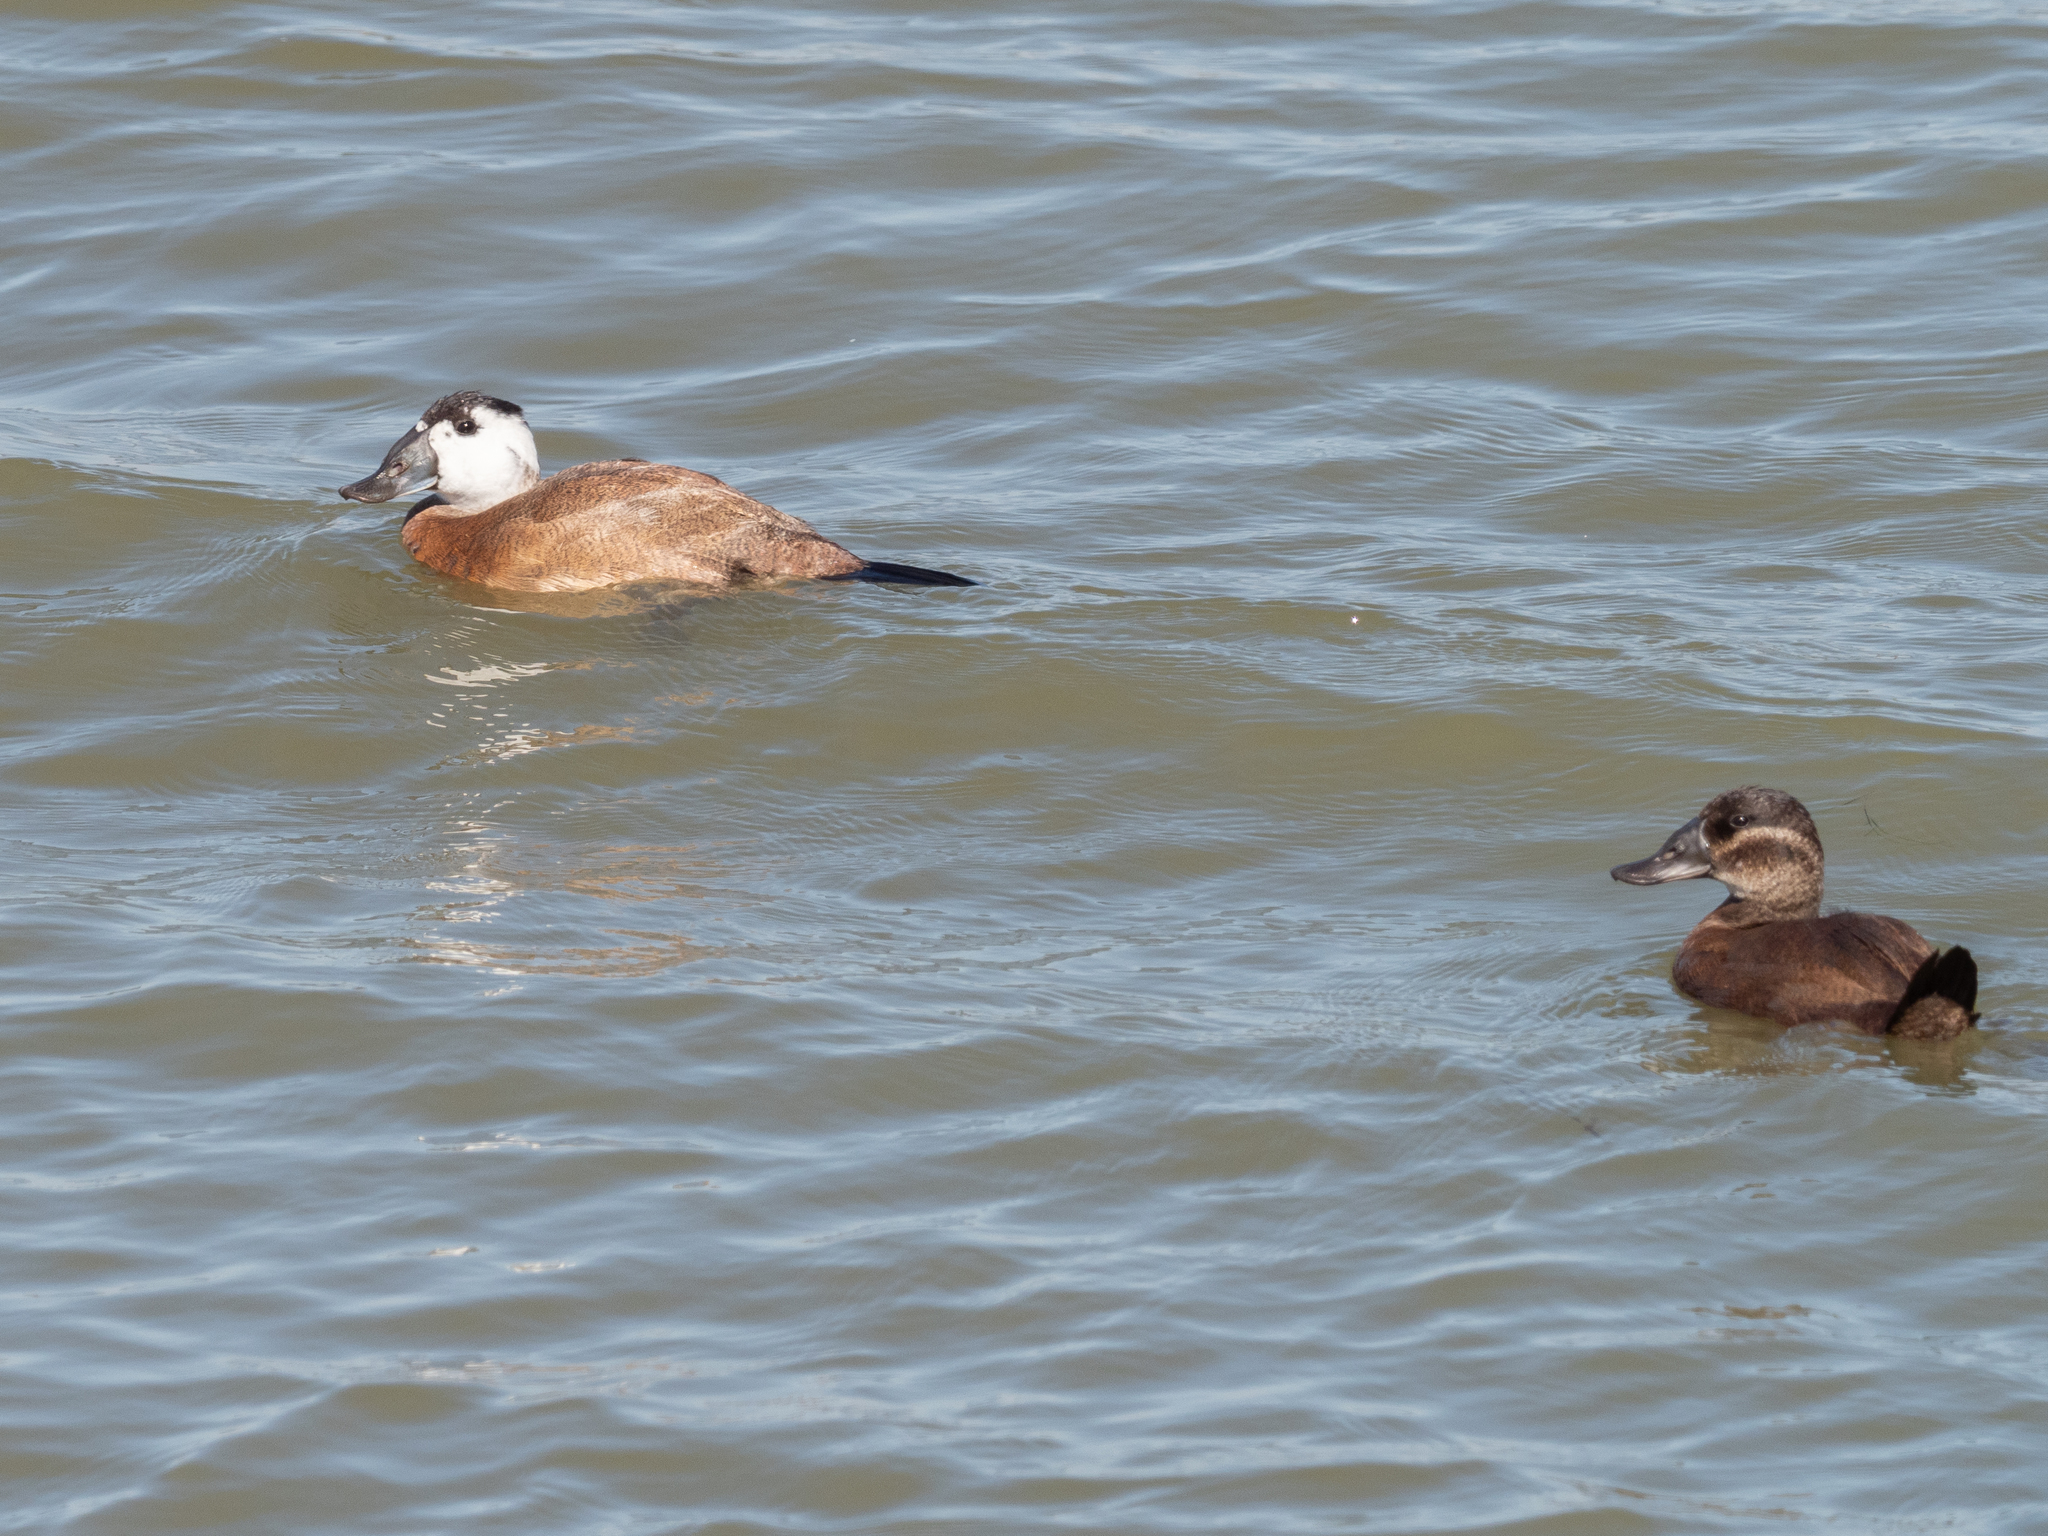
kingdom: Animalia
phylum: Chordata
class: Aves
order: Anseriformes
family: Anatidae
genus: Oxyura
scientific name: Oxyura leucocephala
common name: White-headed duck
